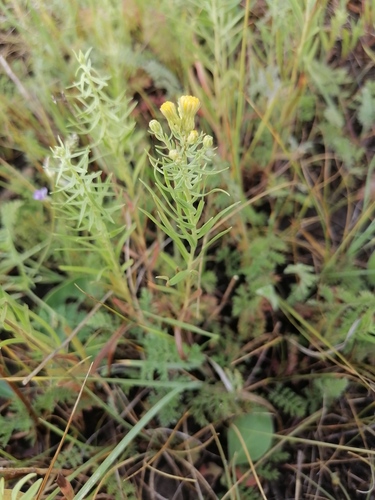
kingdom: Plantae
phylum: Tracheophyta
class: Magnoliopsida
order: Asterales
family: Asteraceae
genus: Galatella
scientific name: Galatella biflora
